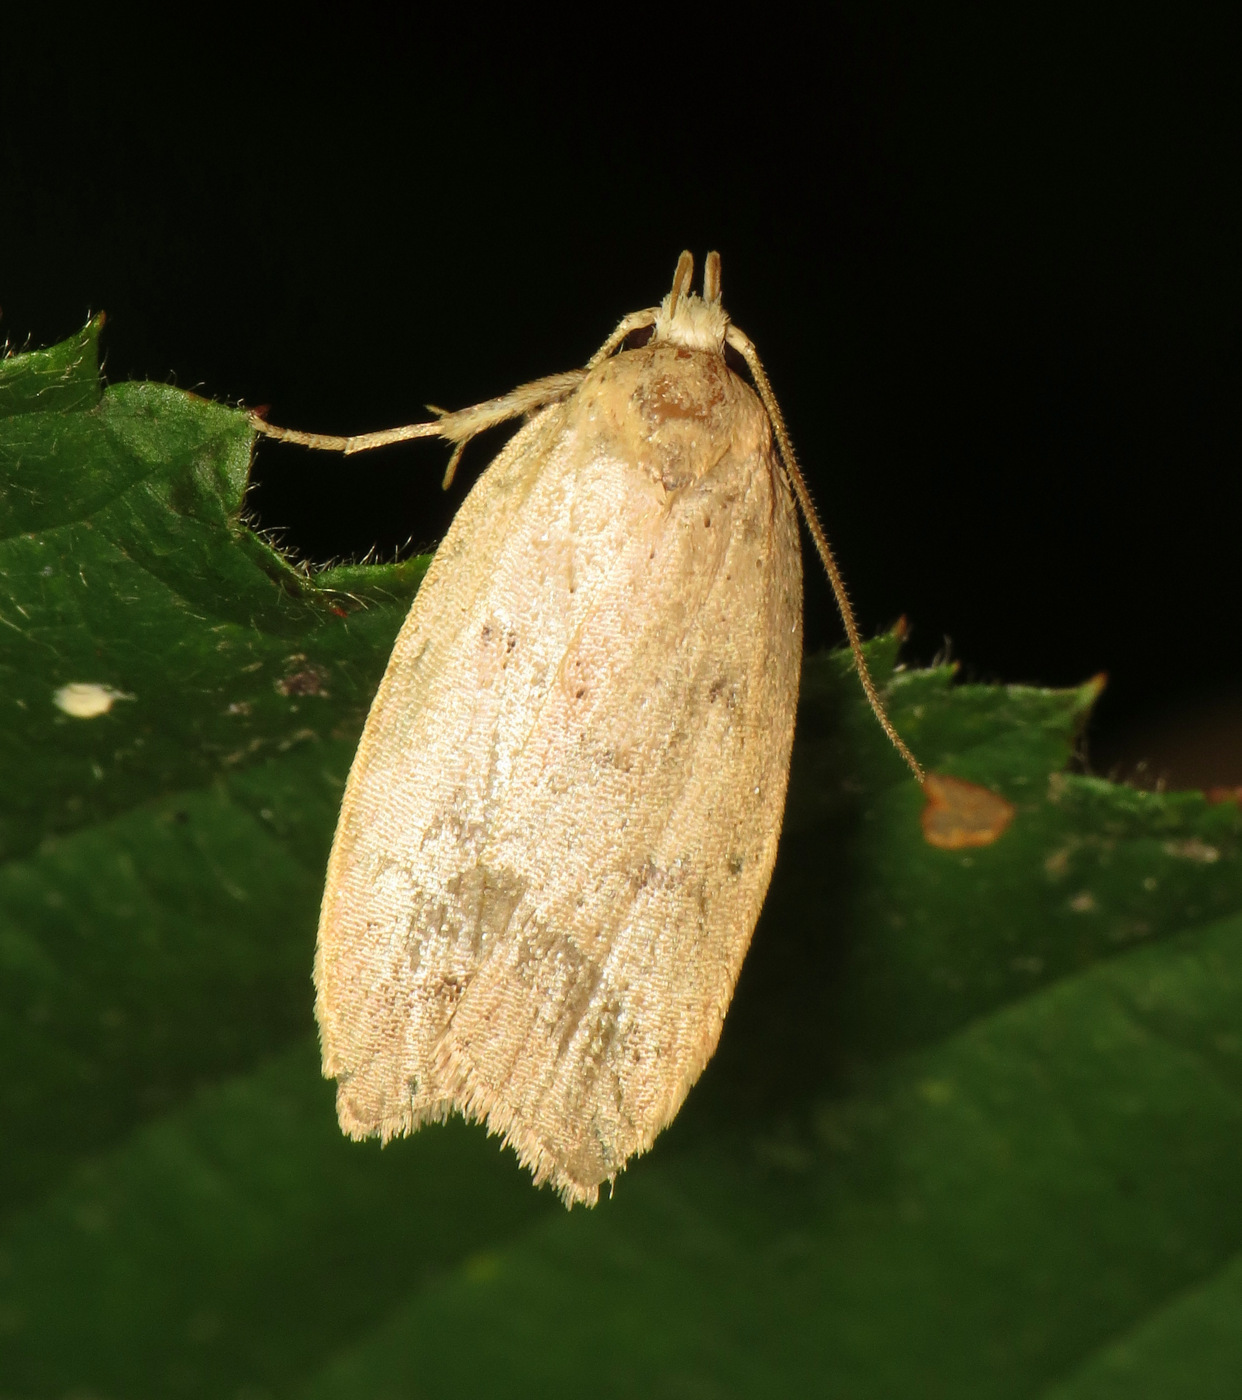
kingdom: Animalia
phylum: Arthropoda
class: Insecta
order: Lepidoptera
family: Peleopodidae
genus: Machimia
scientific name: Machimia tentoriferella
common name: Gold-striped leaftier moth
